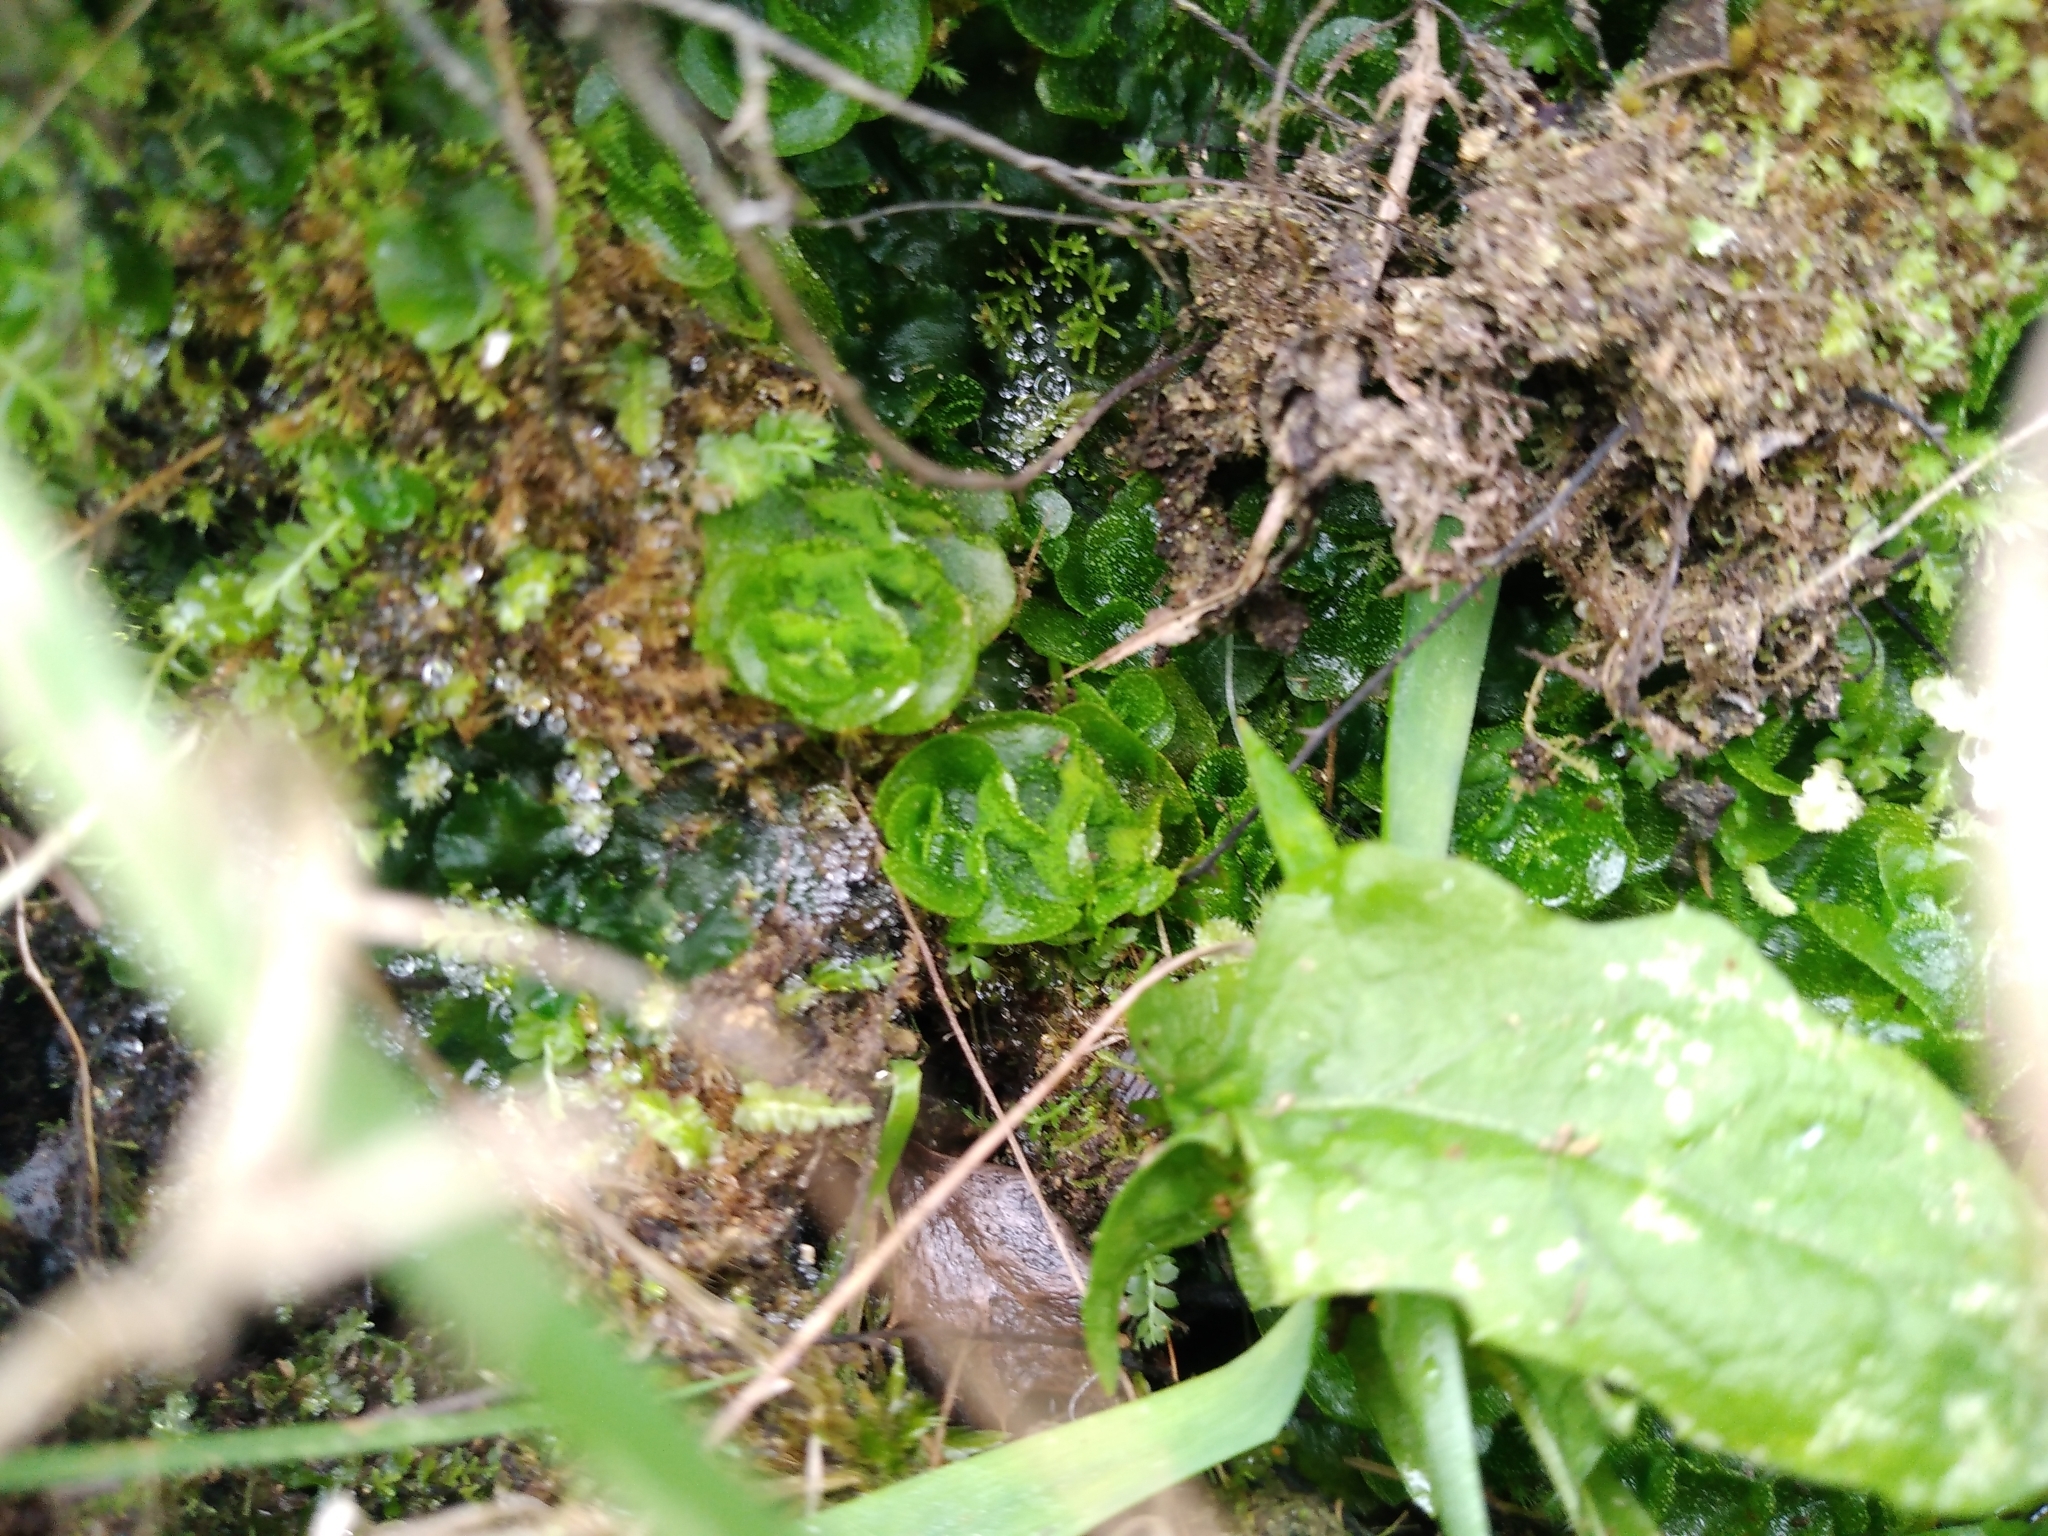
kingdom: Plantae
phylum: Marchantiophyta
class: Haplomitriopsida
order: Treubiales
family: Treubiaceae
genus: Treubia
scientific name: Treubia lacunosa
